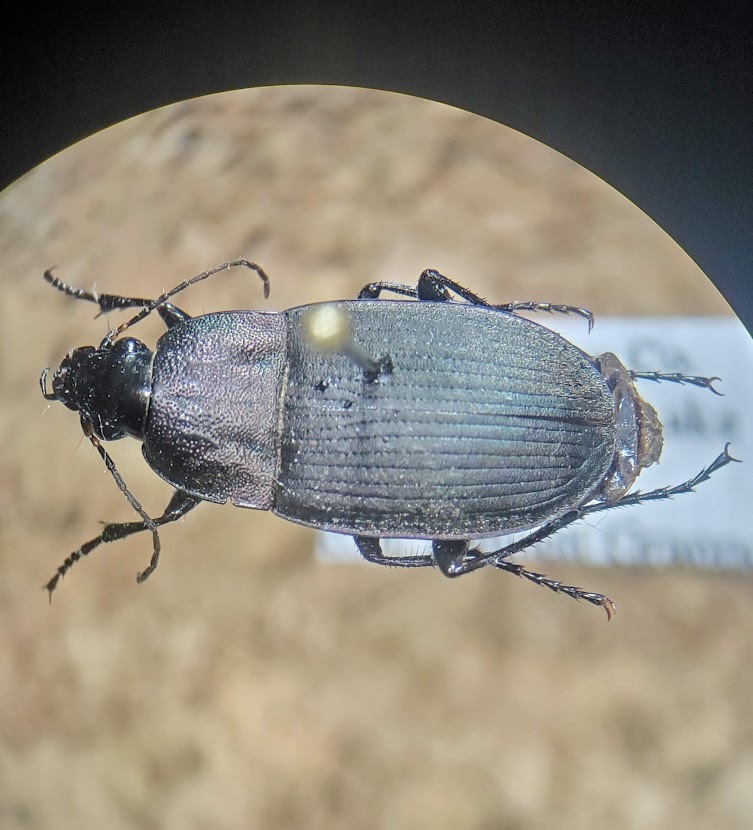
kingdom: Animalia
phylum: Arthropoda
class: Insecta
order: Coleoptera
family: Carabidae
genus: Chlaenius
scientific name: Chlaenius tomentosus
